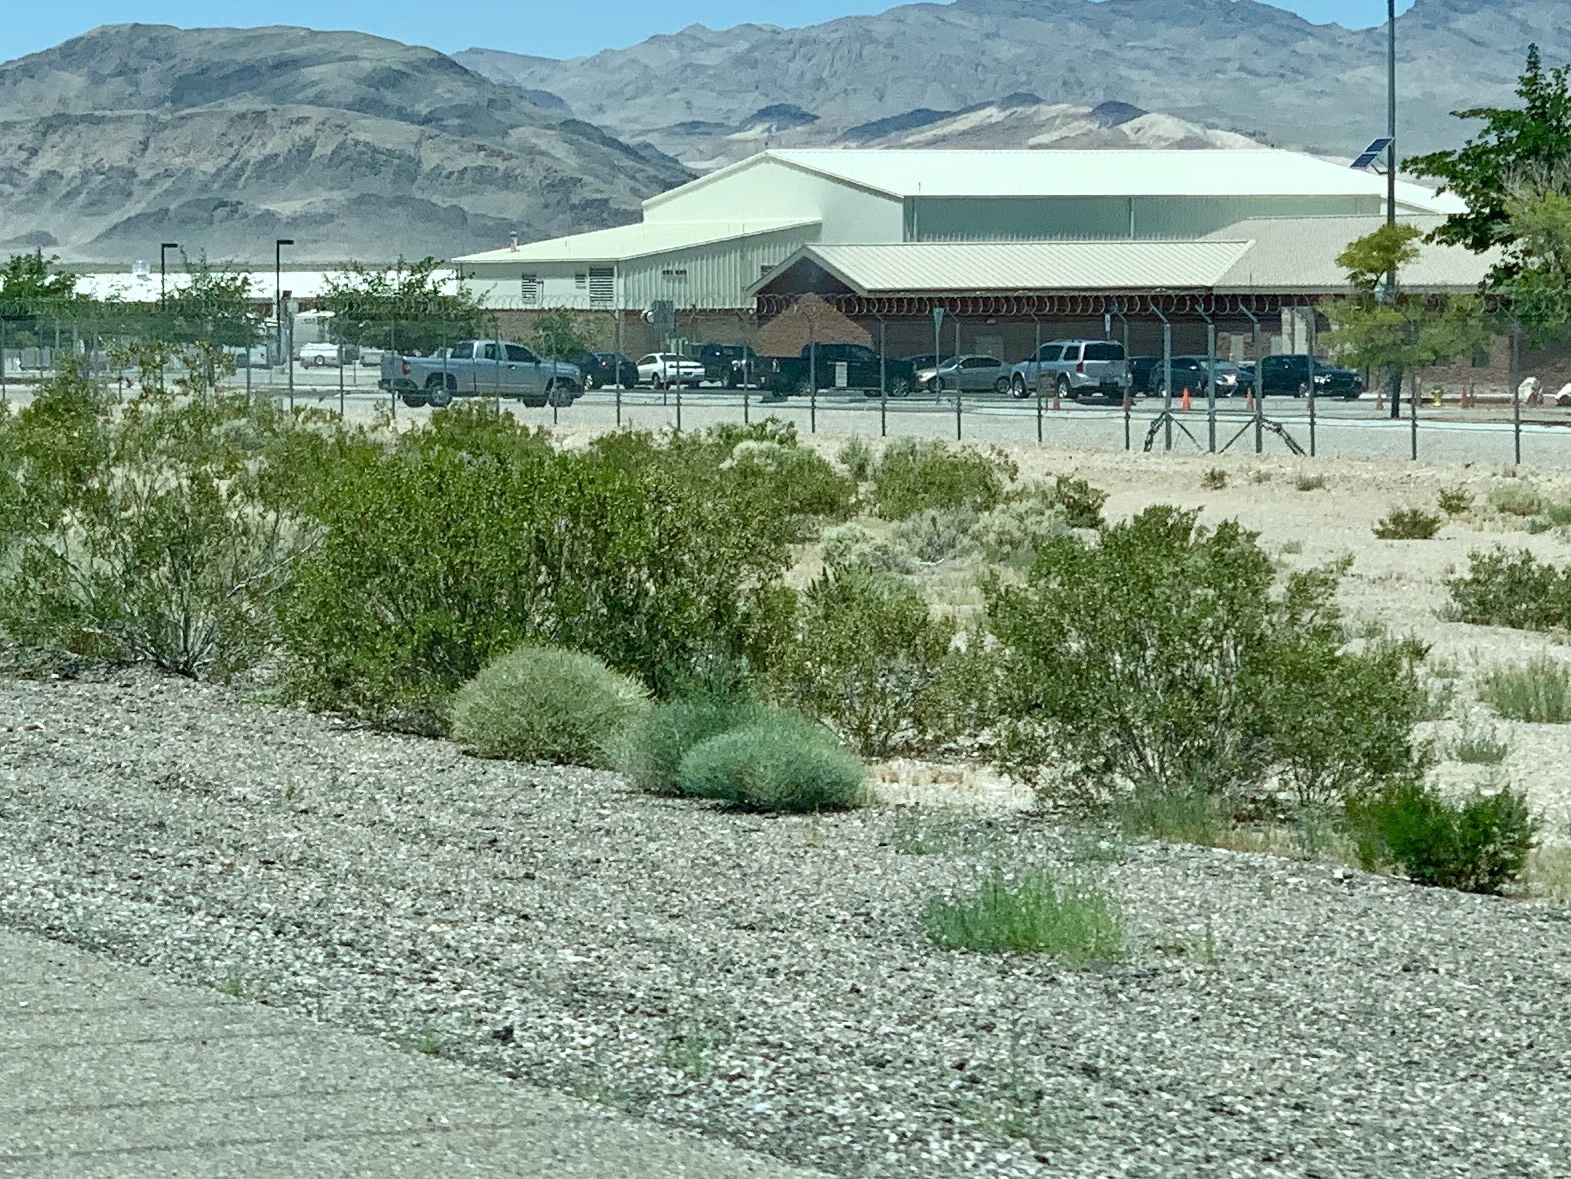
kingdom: Plantae
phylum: Tracheophyta
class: Magnoliopsida
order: Zygophyllales
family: Zygophyllaceae
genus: Larrea
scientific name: Larrea tridentata
